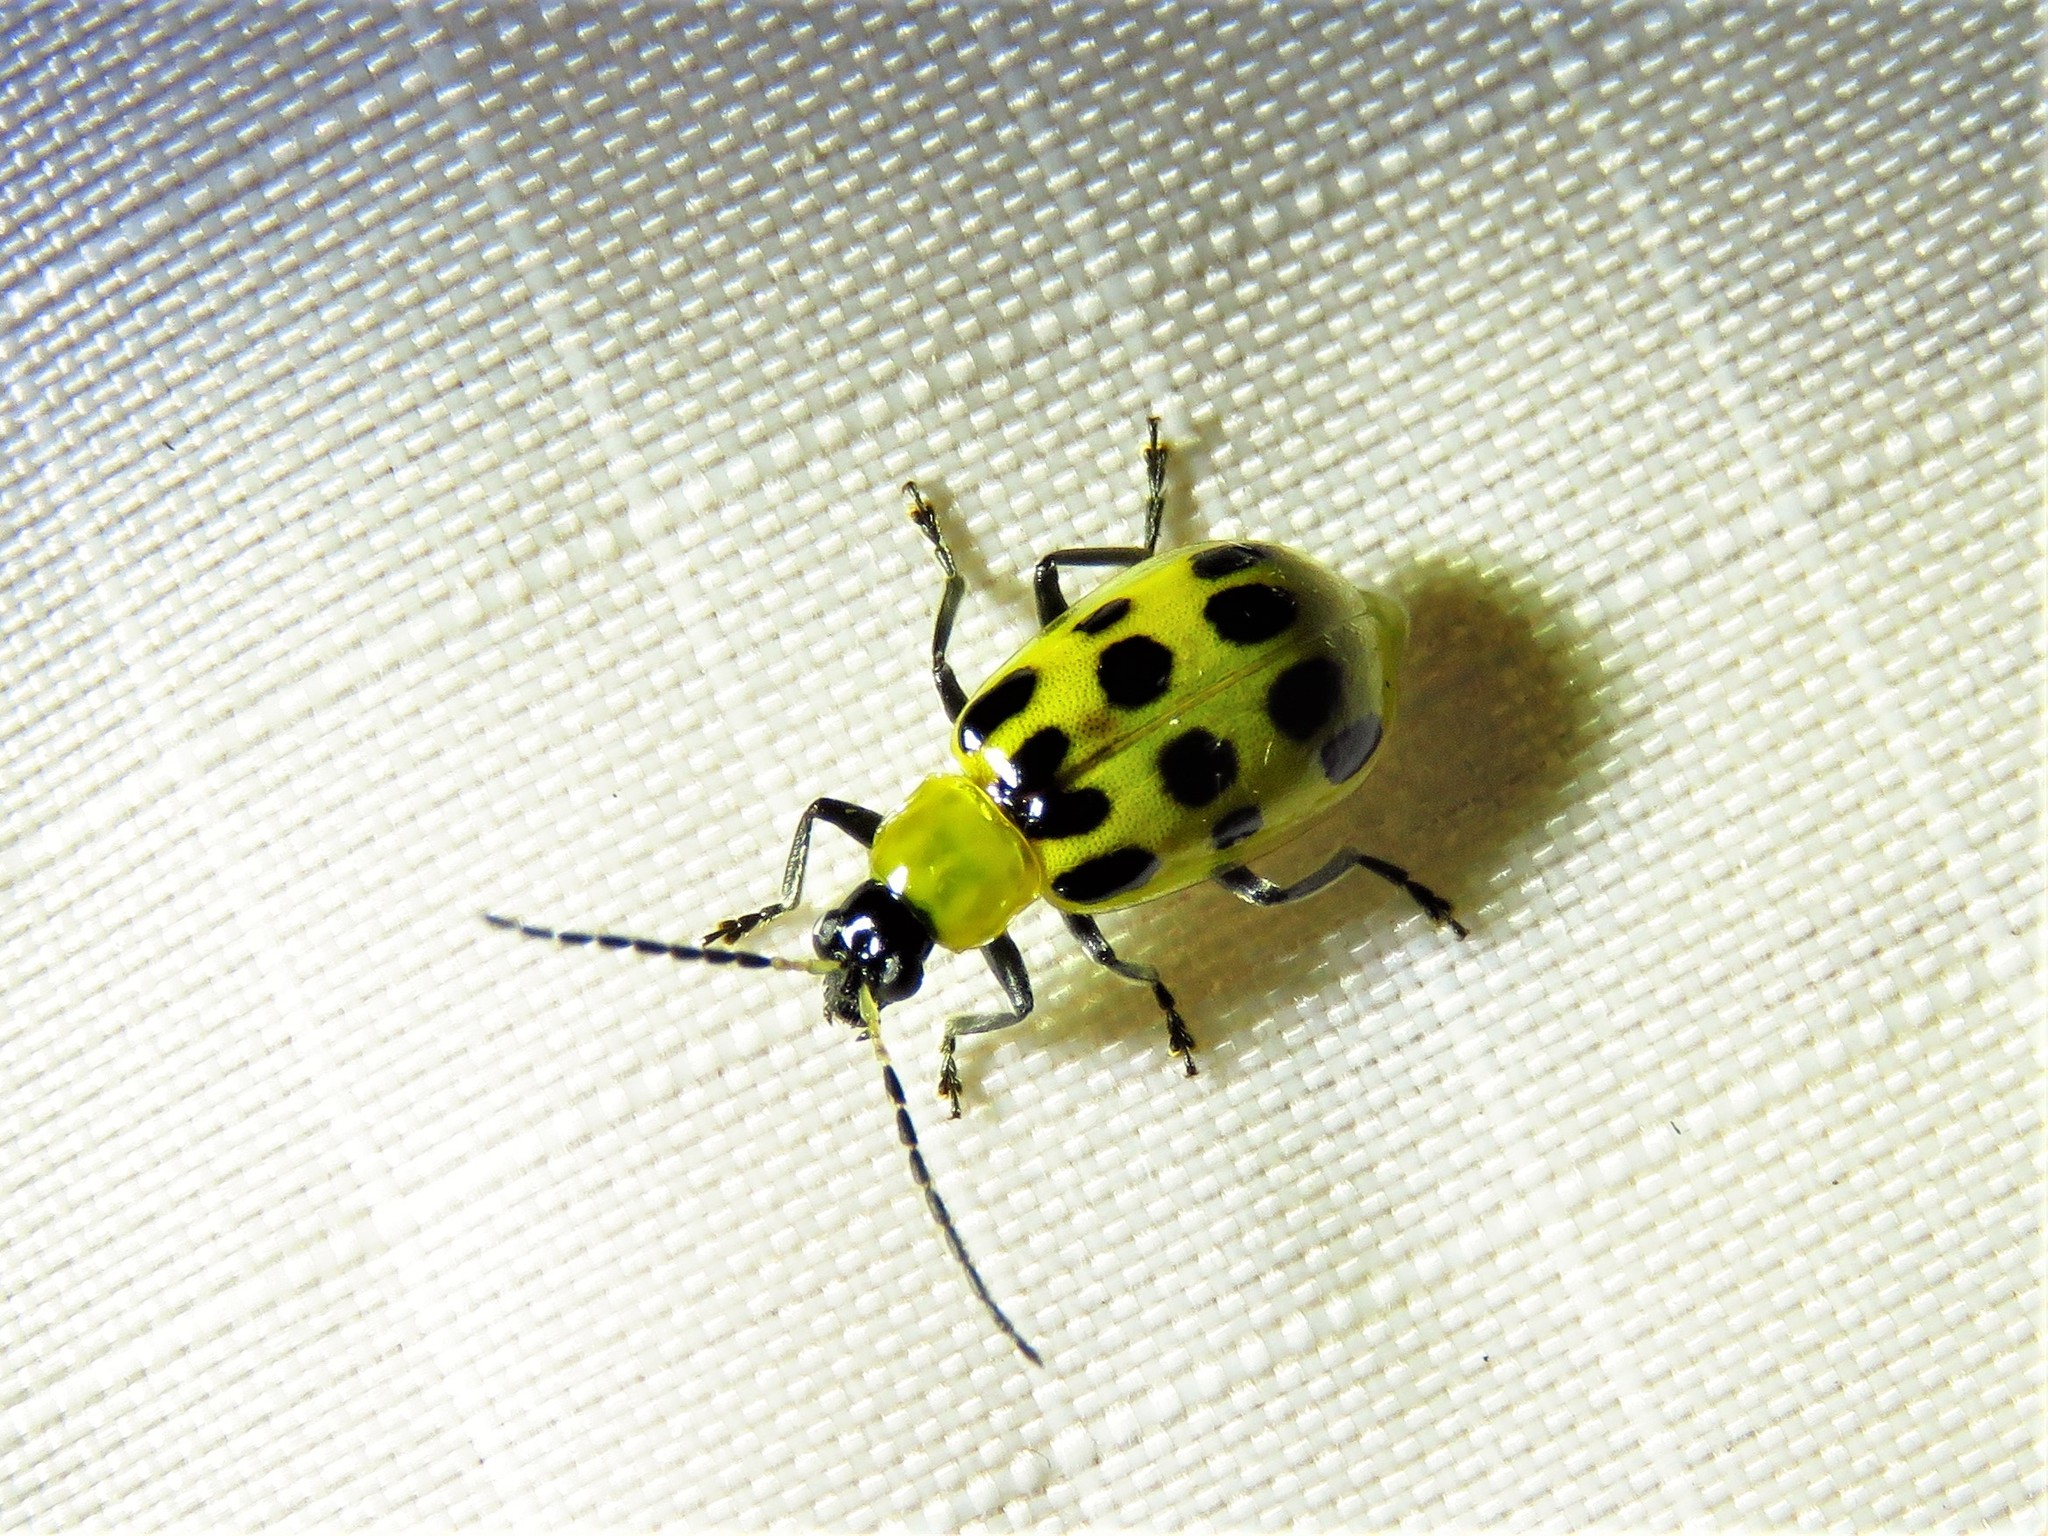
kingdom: Animalia
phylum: Arthropoda
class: Insecta
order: Coleoptera
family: Chrysomelidae
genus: Diabrotica
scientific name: Diabrotica undecimpunctata
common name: Spotted cucumber beetle
